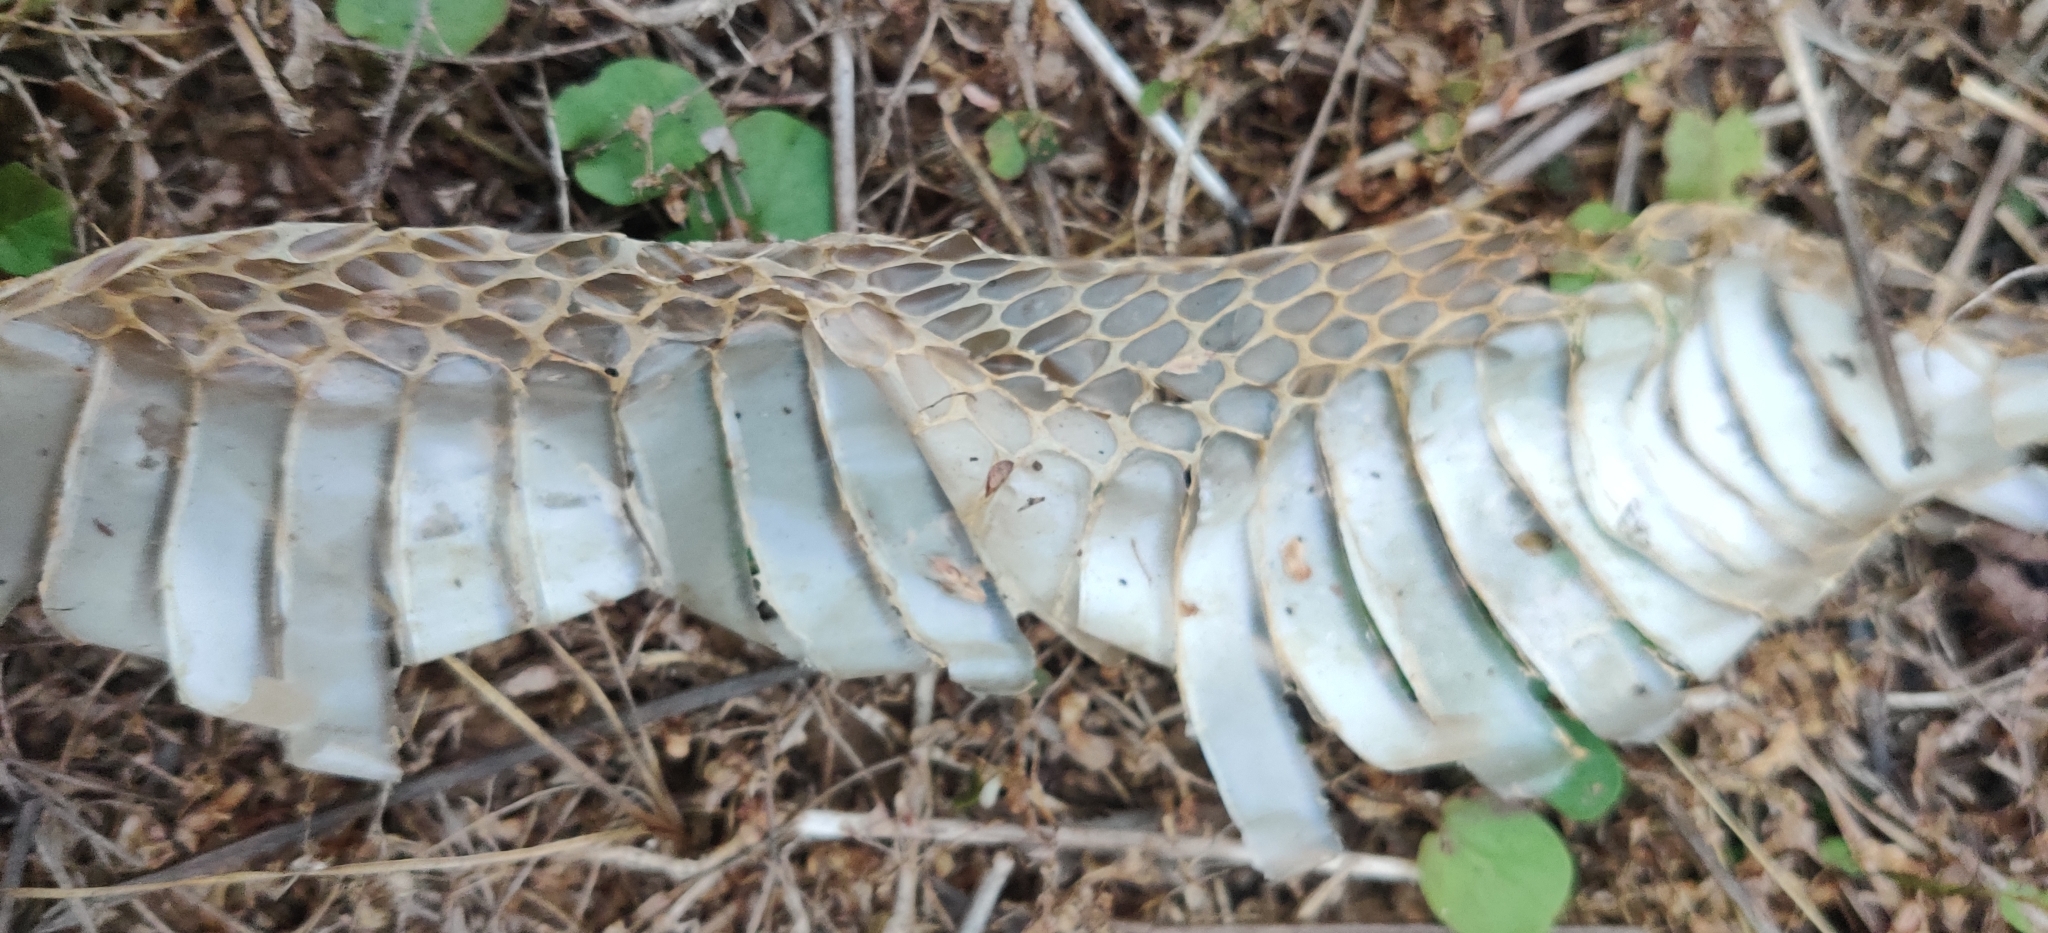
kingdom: Animalia
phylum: Chordata
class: Squamata
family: Elapidae
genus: Naja
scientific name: Naja naja
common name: Indian cobra
